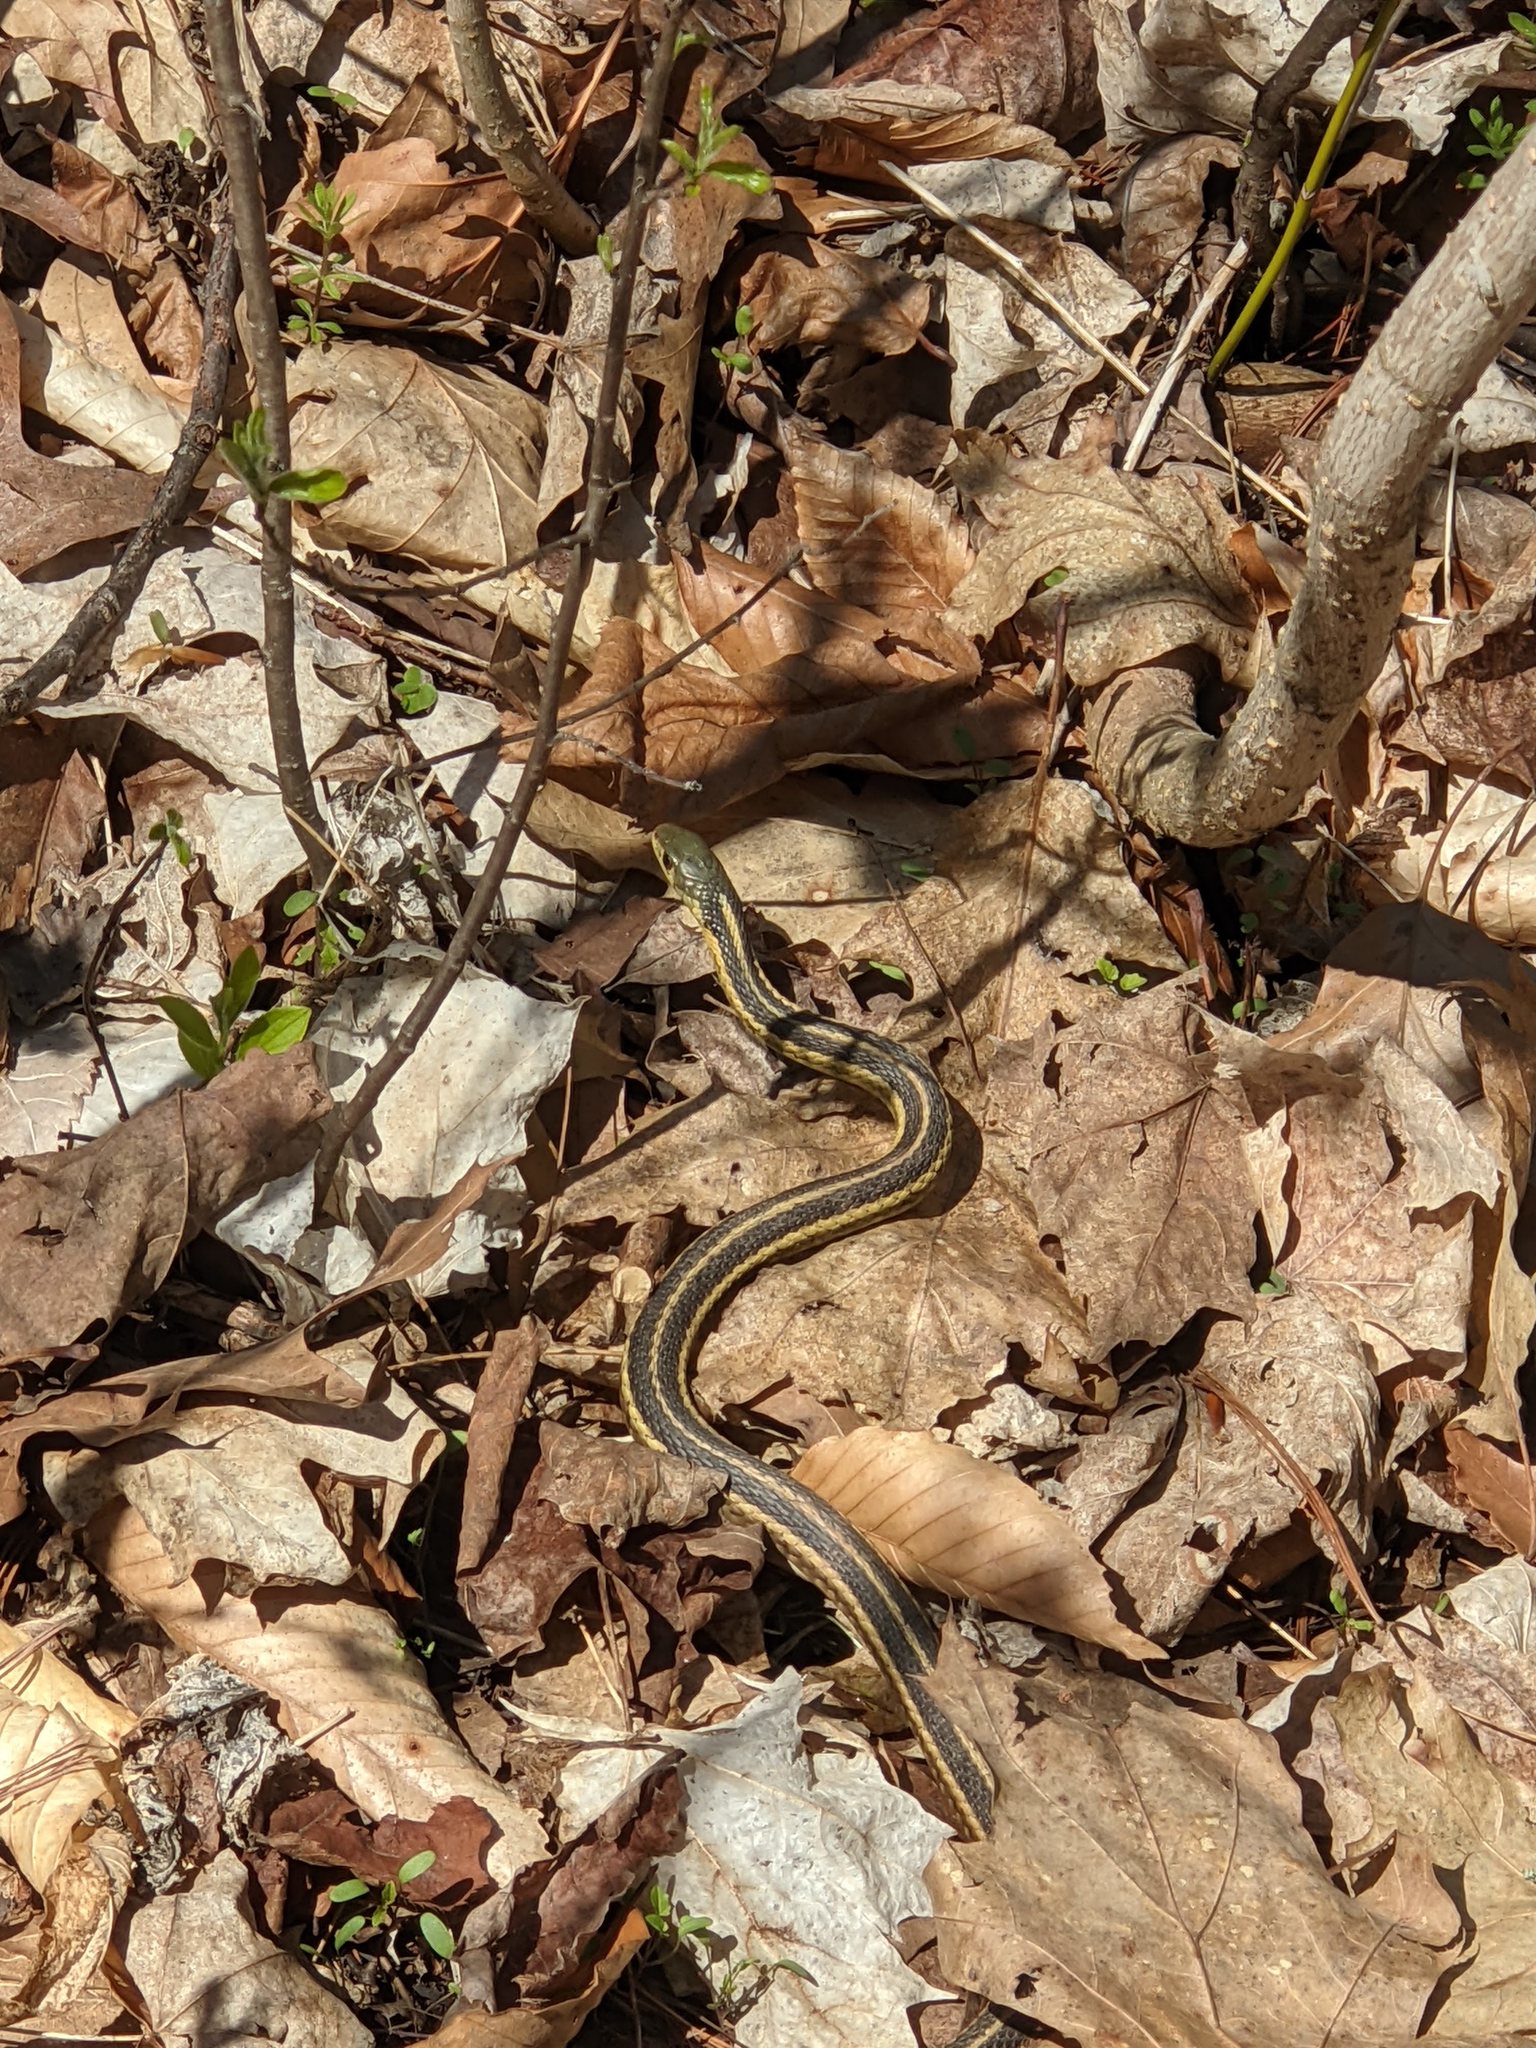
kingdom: Animalia
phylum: Chordata
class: Squamata
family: Colubridae
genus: Thamnophis
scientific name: Thamnophis sirtalis
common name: Common garter snake
